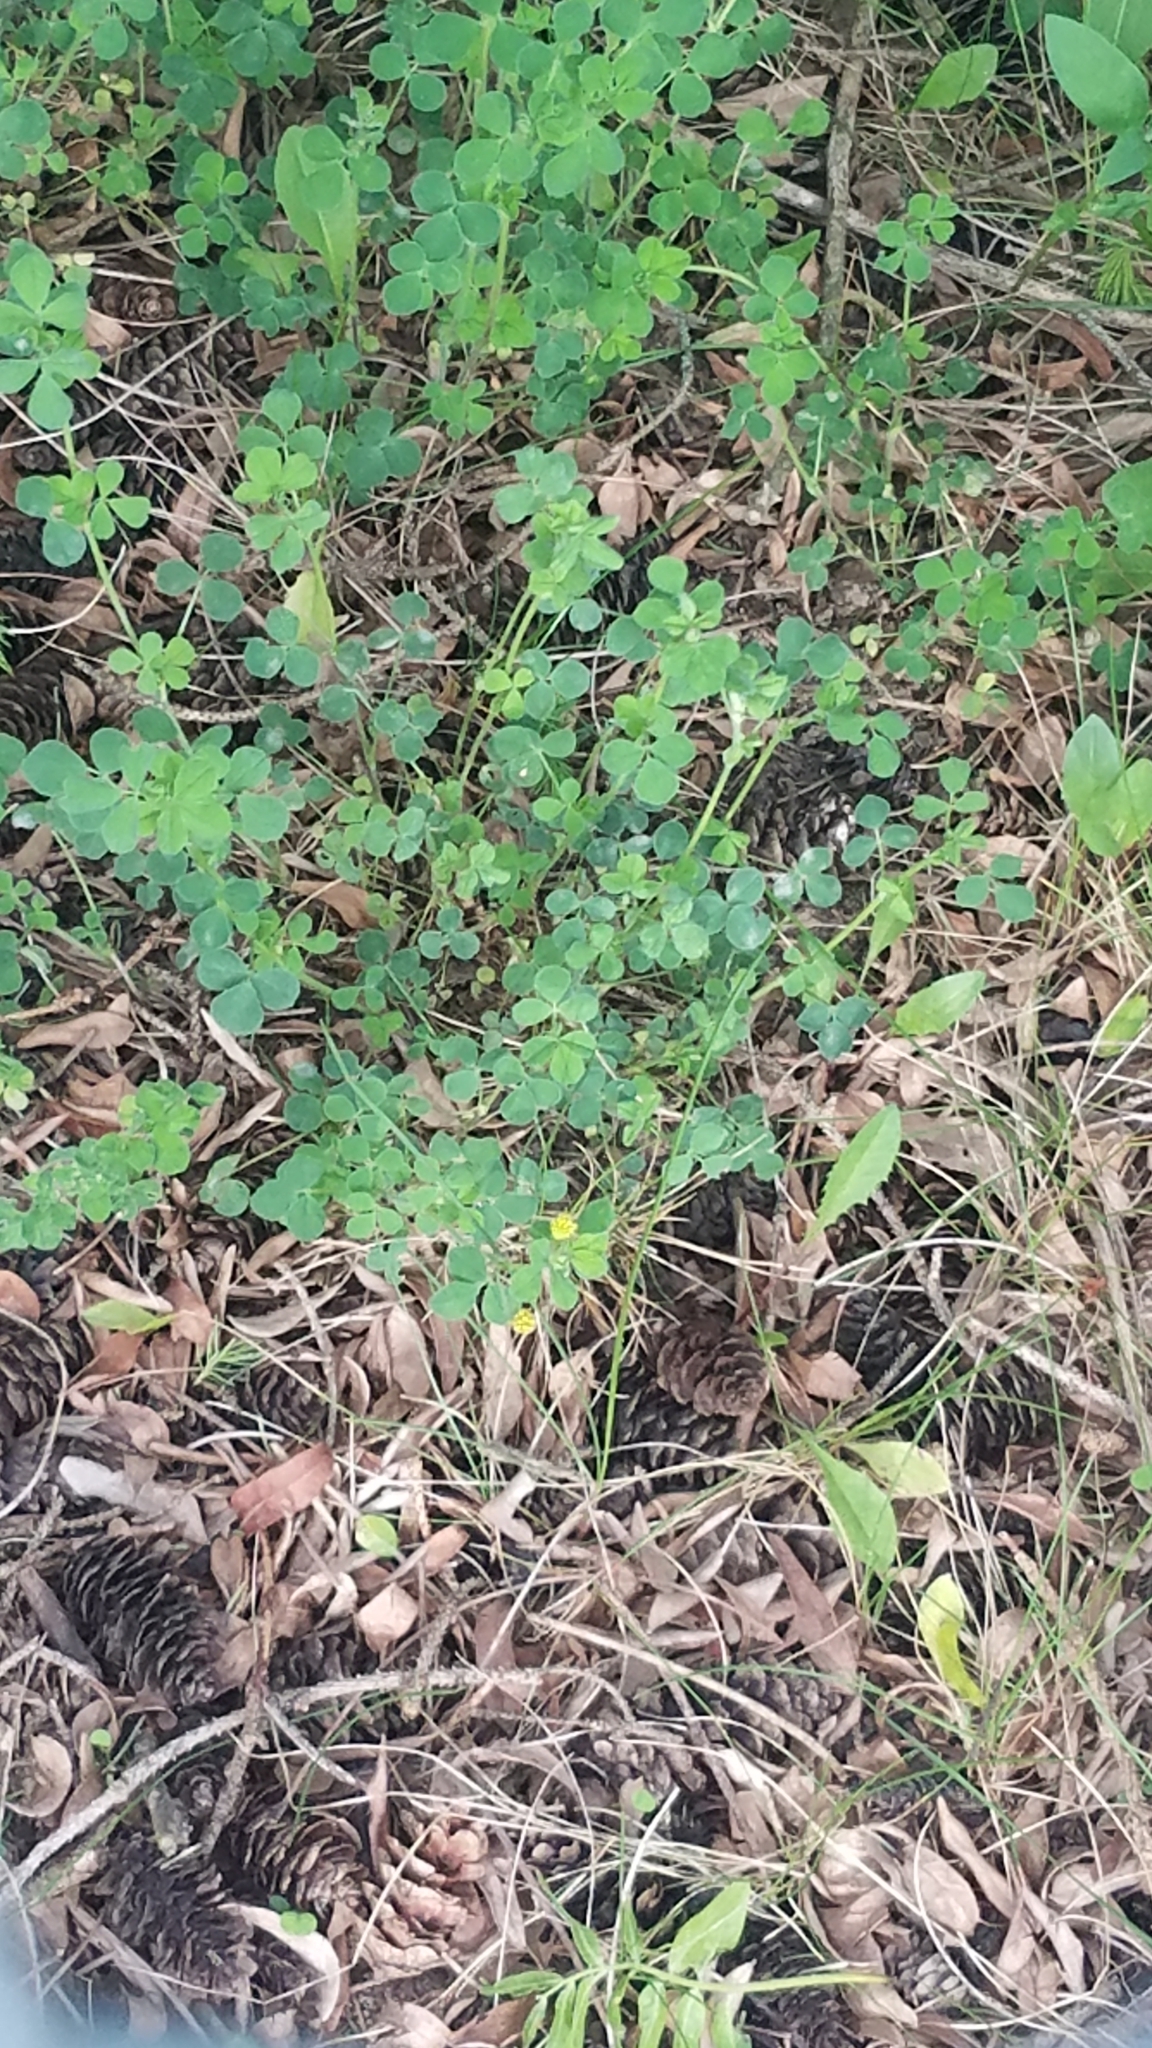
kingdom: Plantae
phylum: Tracheophyta
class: Magnoliopsida
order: Fabales
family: Fabaceae
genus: Medicago
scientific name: Medicago lupulina
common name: Black medick
